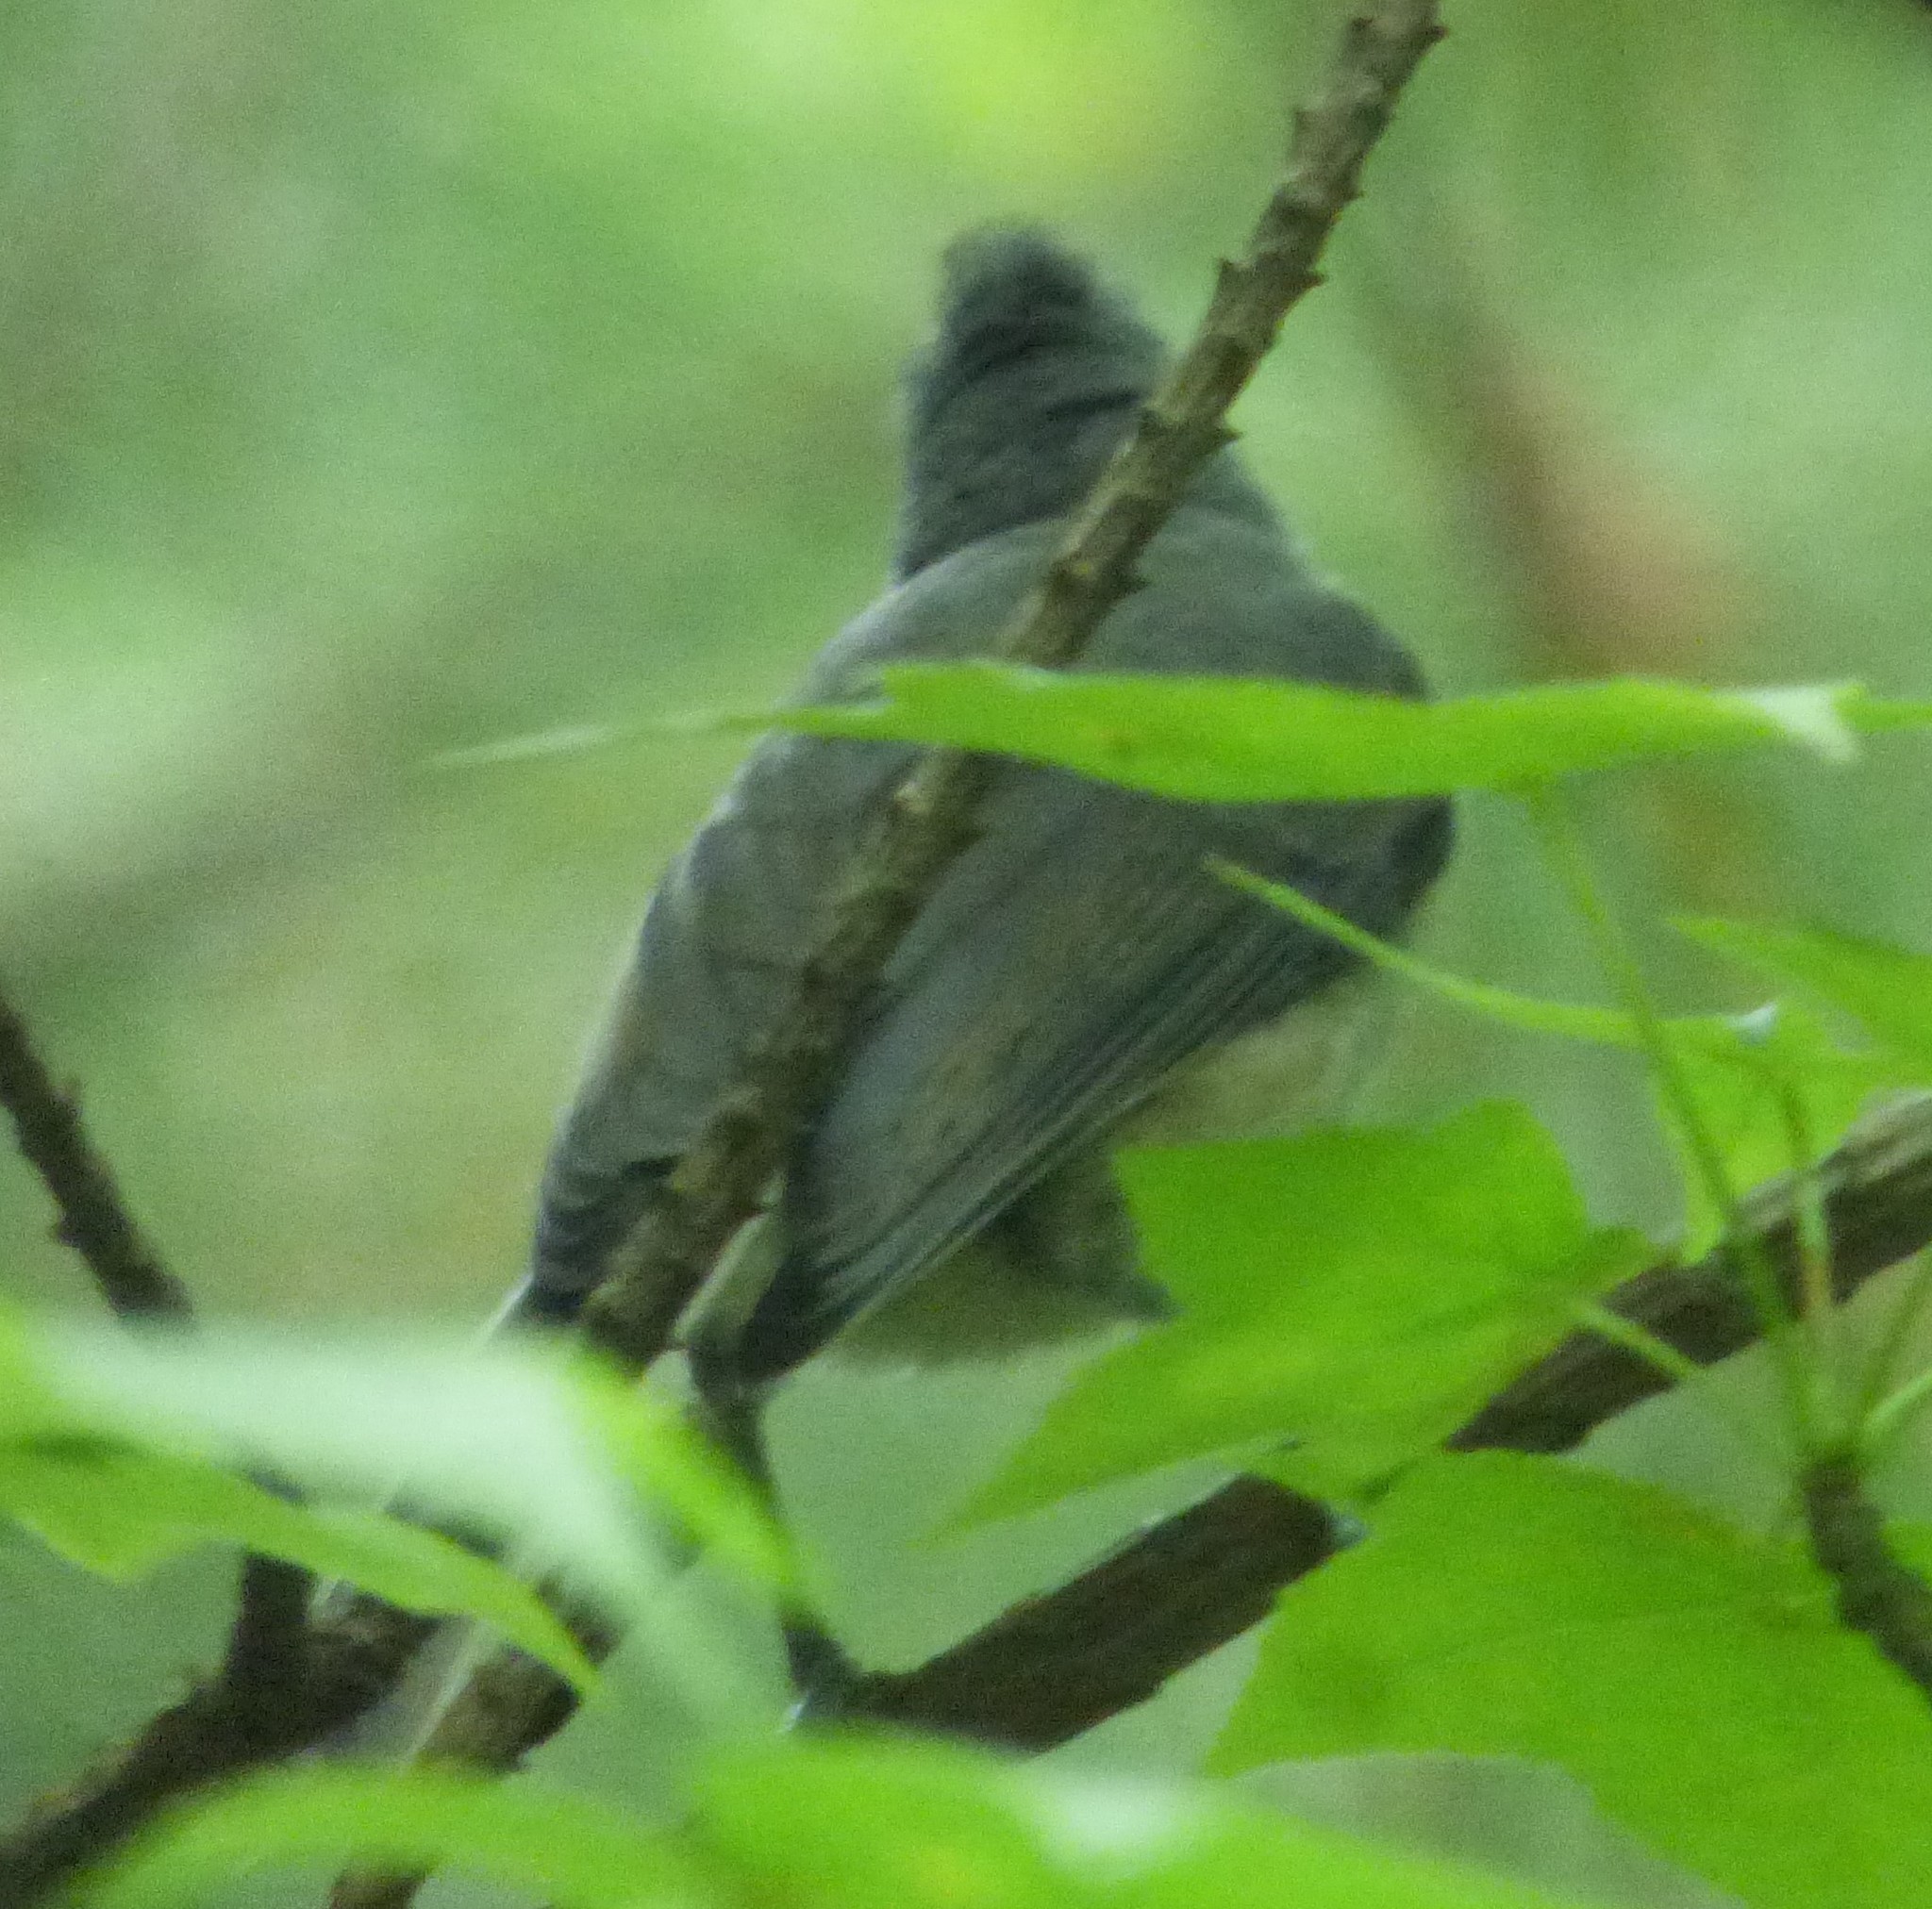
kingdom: Animalia
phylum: Chordata
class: Aves
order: Passeriformes
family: Paridae
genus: Baeolophus
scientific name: Baeolophus bicolor
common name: Tufted titmouse
